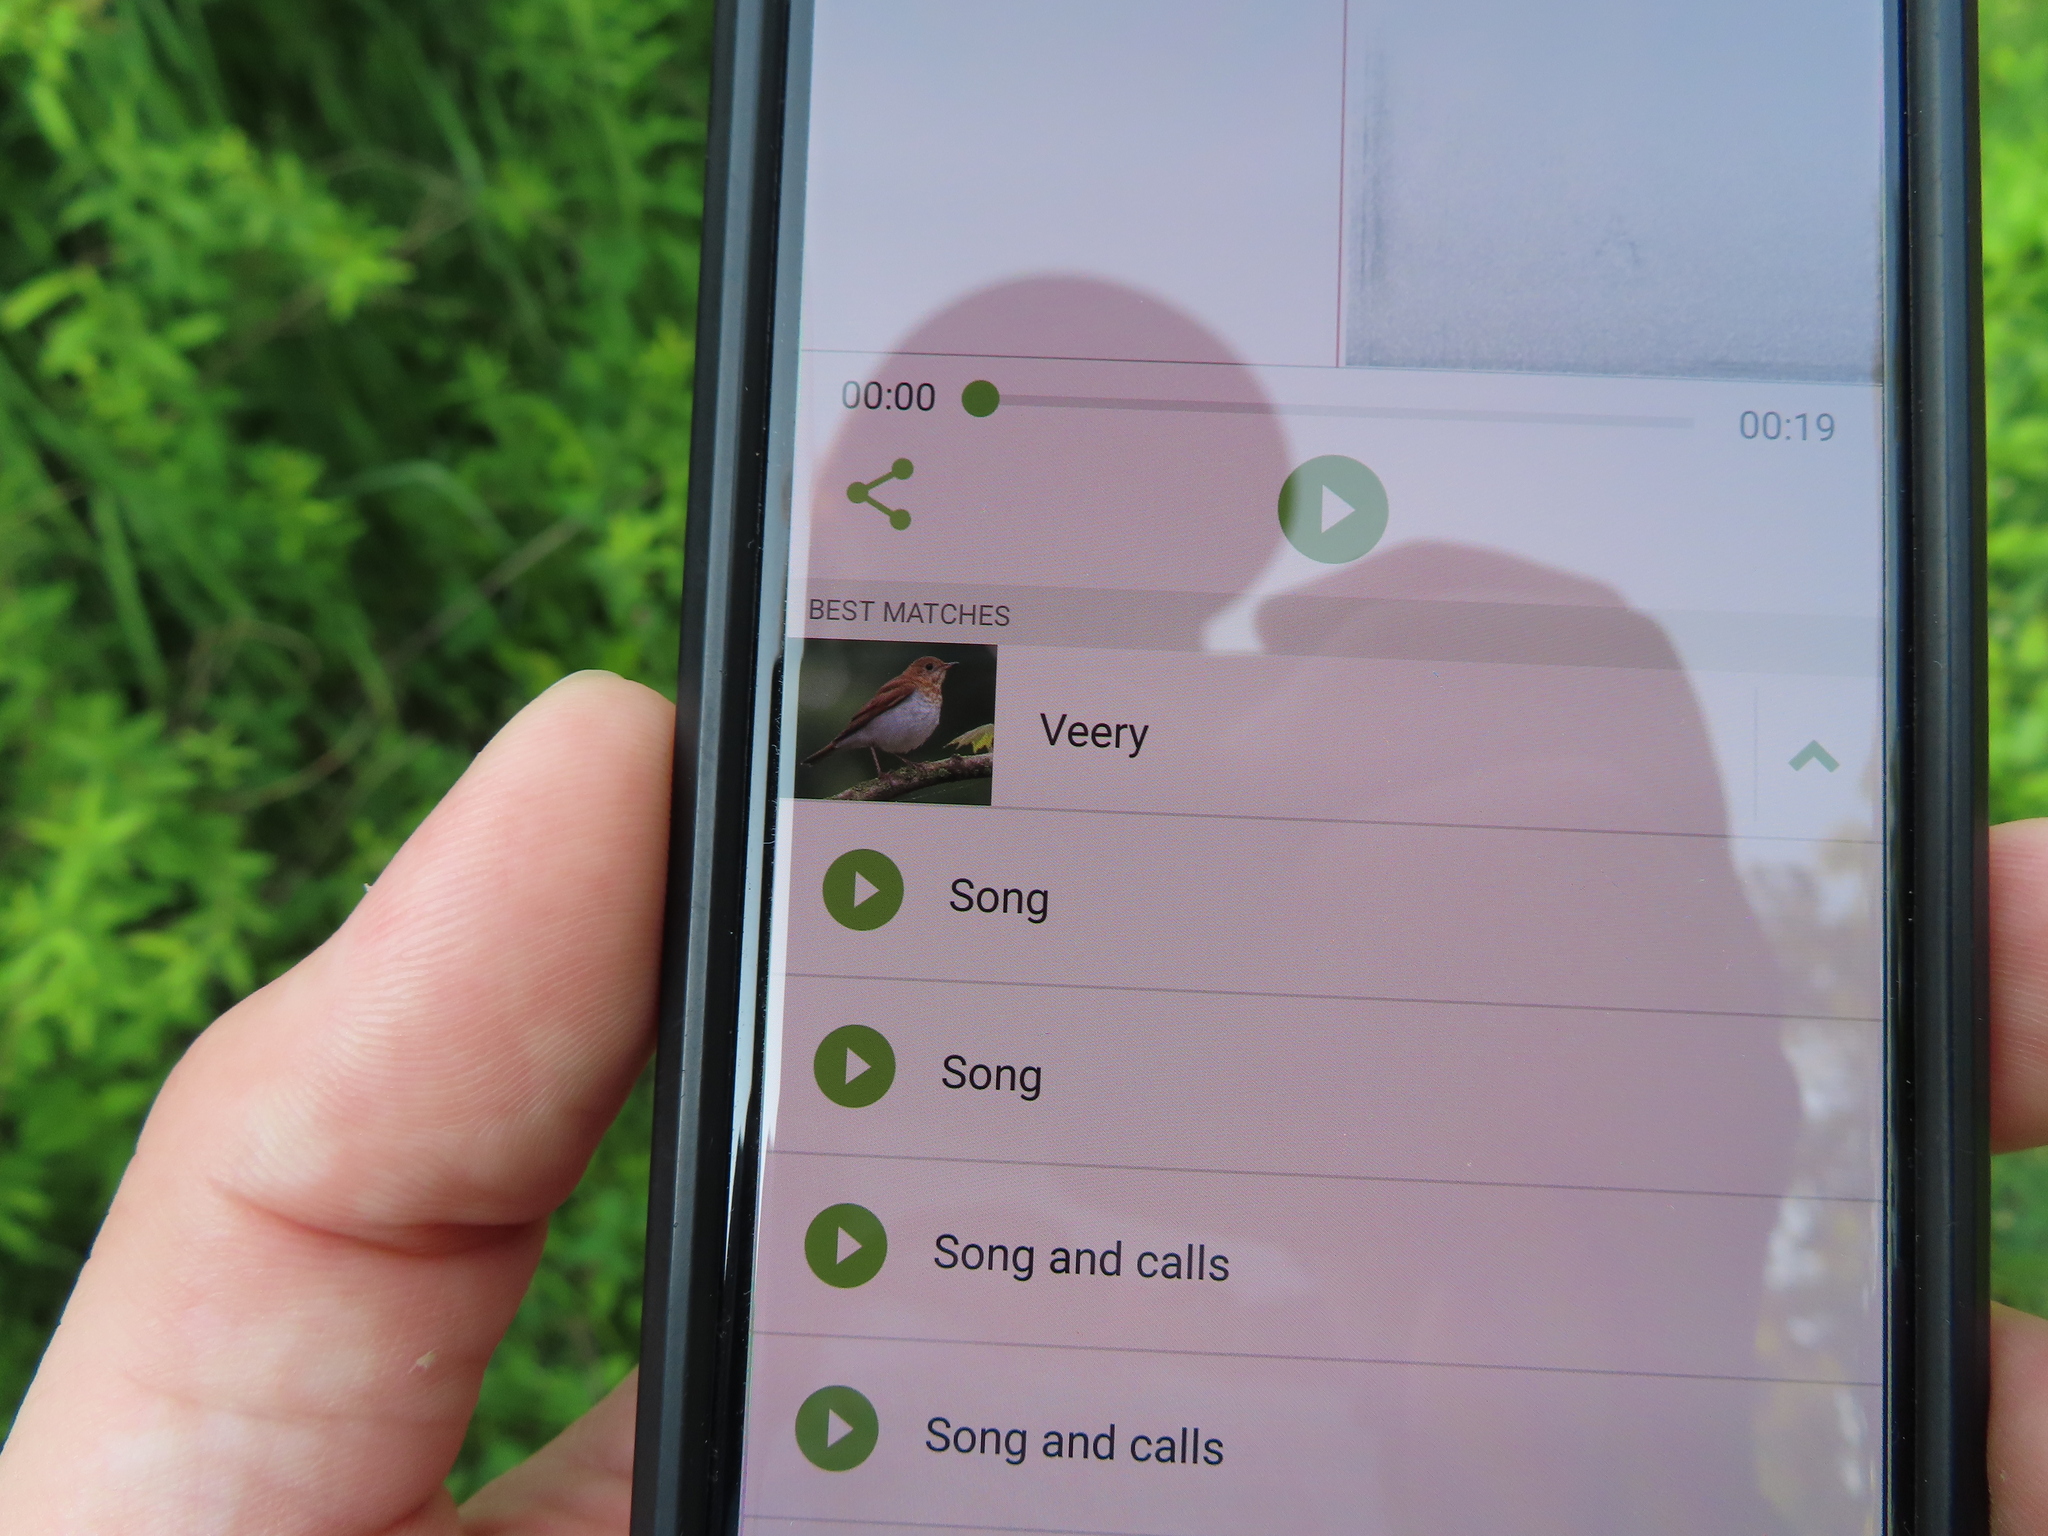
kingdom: Animalia
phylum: Chordata
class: Aves
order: Passeriformes
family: Turdidae
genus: Catharus
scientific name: Catharus fuscescens
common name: Veery
